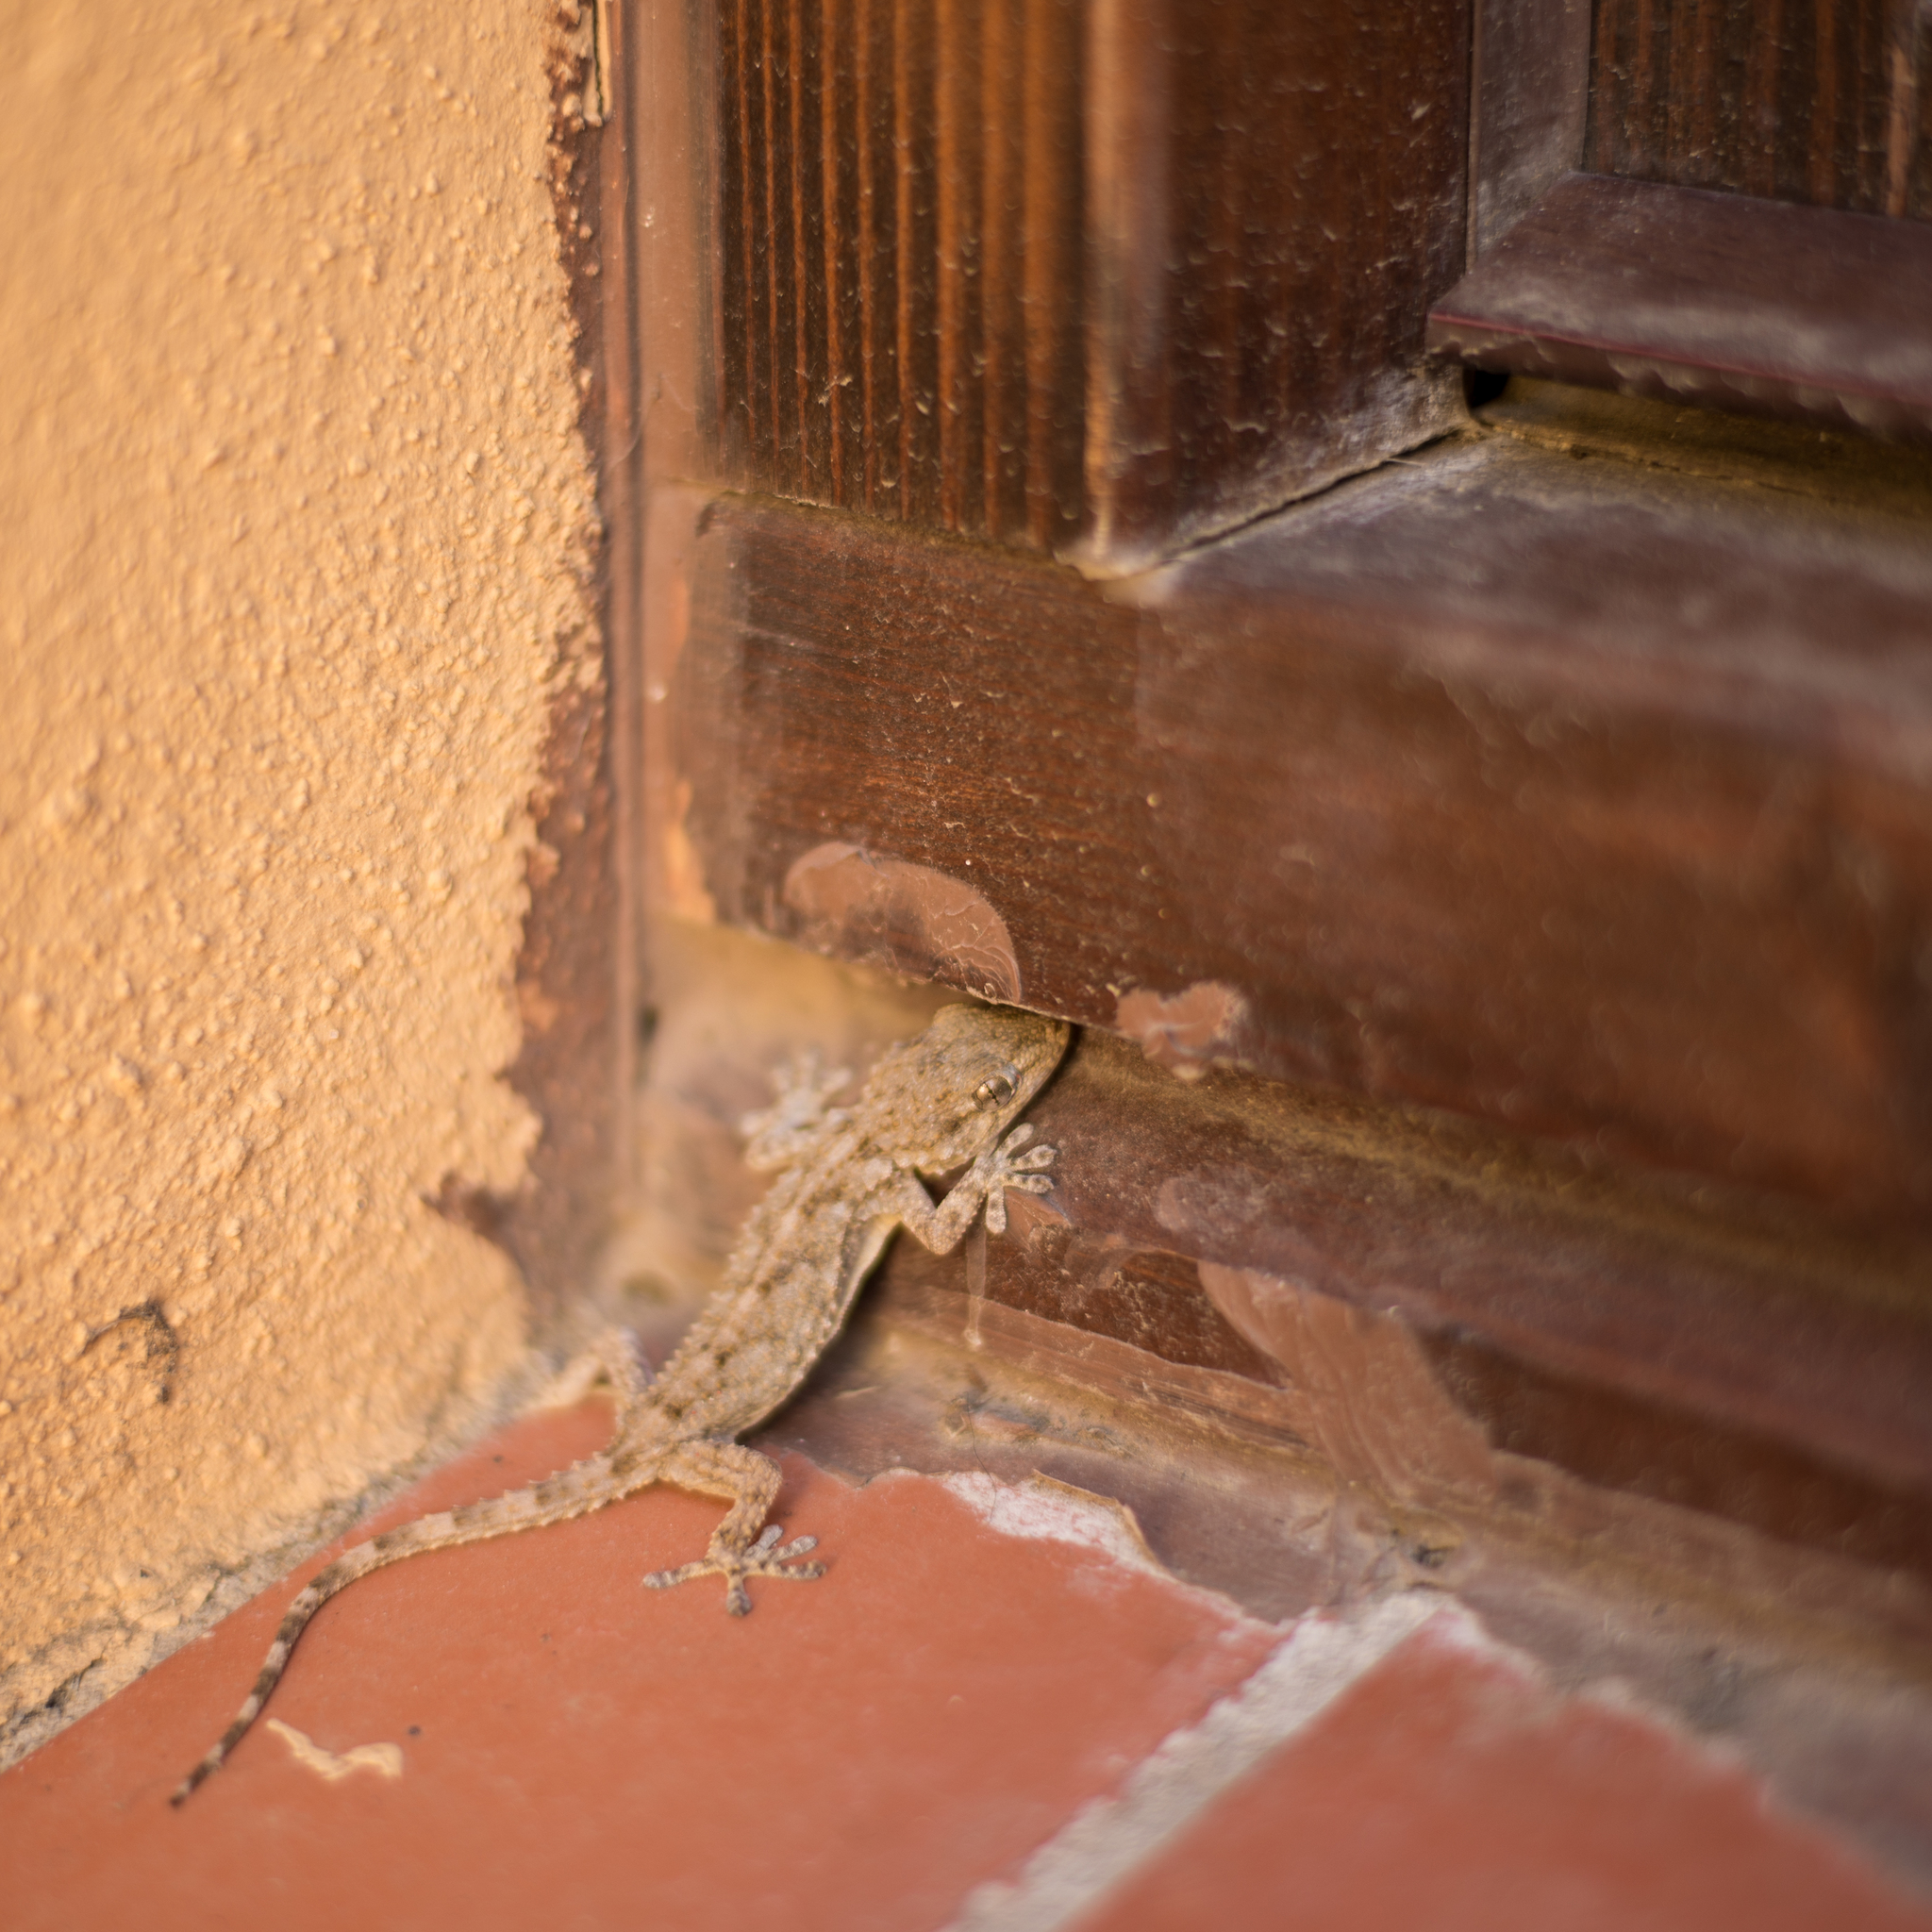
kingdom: Animalia
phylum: Chordata
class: Squamata
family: Phyllodactylidae
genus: Tarentola
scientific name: Tarentola mauritanica
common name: Moorish gecko
